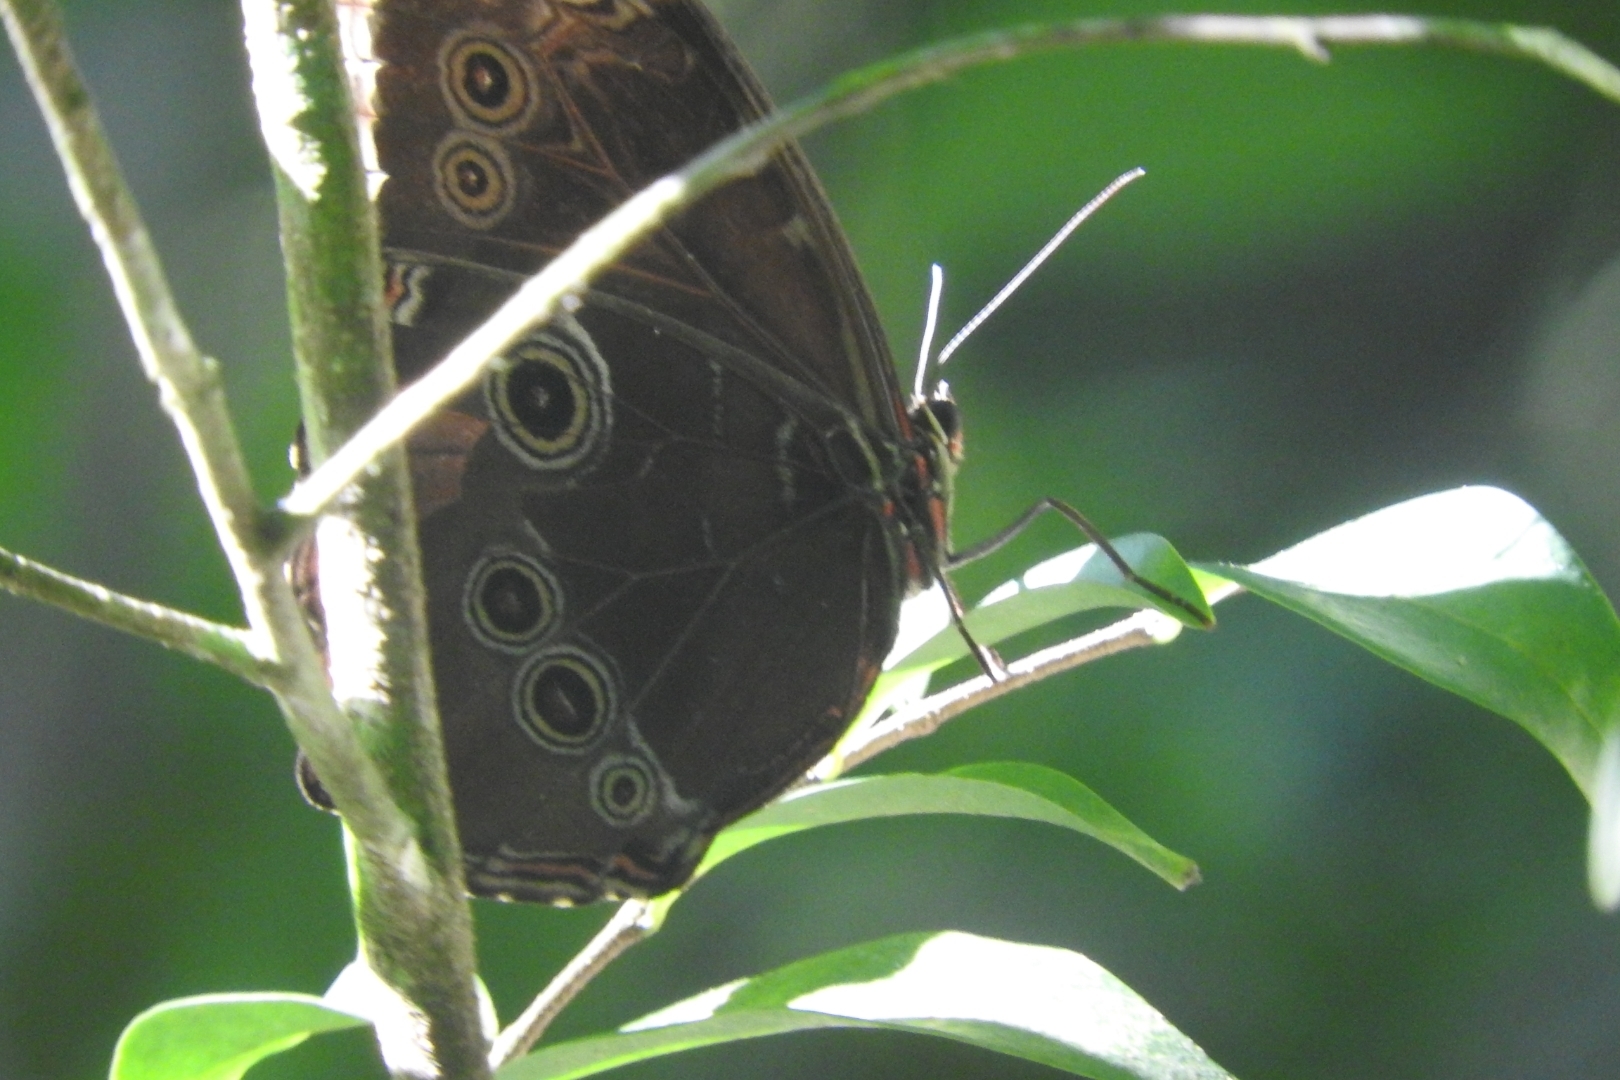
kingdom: Animalia
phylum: Arthropoda
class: Insecta
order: Lepidoptera
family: Nymphalidae
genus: Morpho
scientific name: Morpho helenor
